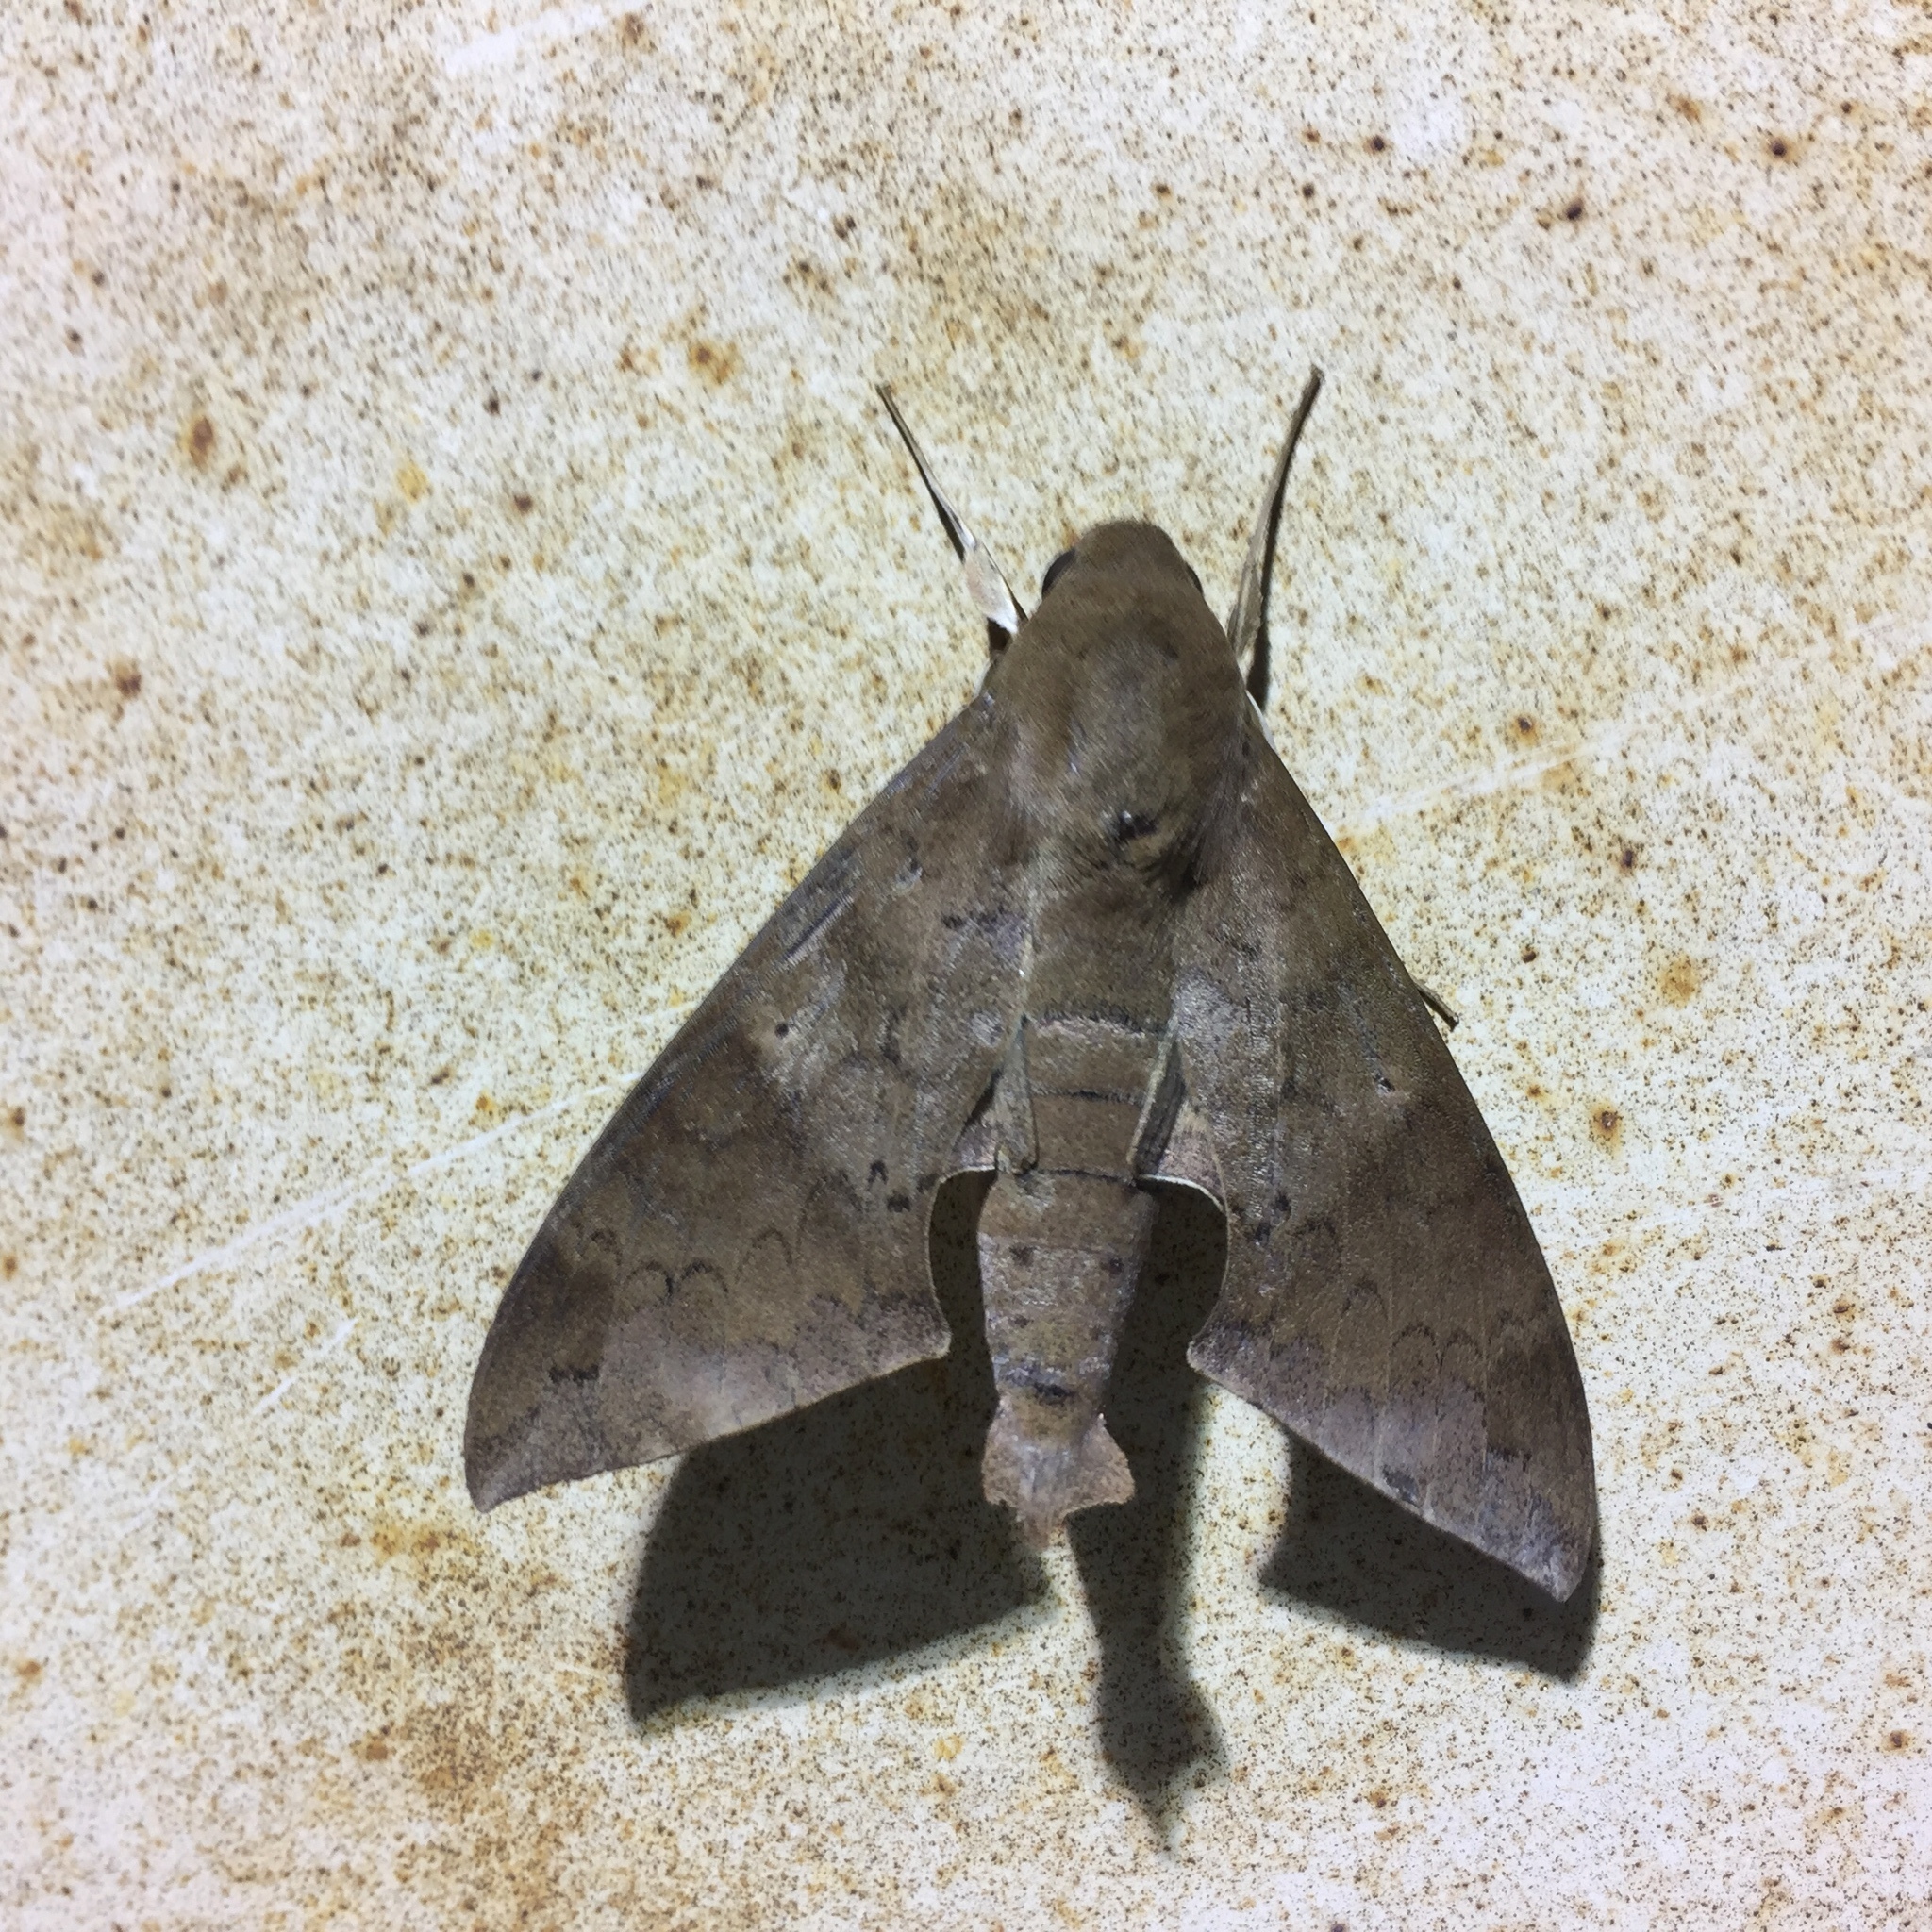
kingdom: Animalia
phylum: Arthropoda
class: Insecta
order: Lepidoptera
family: Sphingidae
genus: Pachylioides
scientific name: Pachylioides resumens
